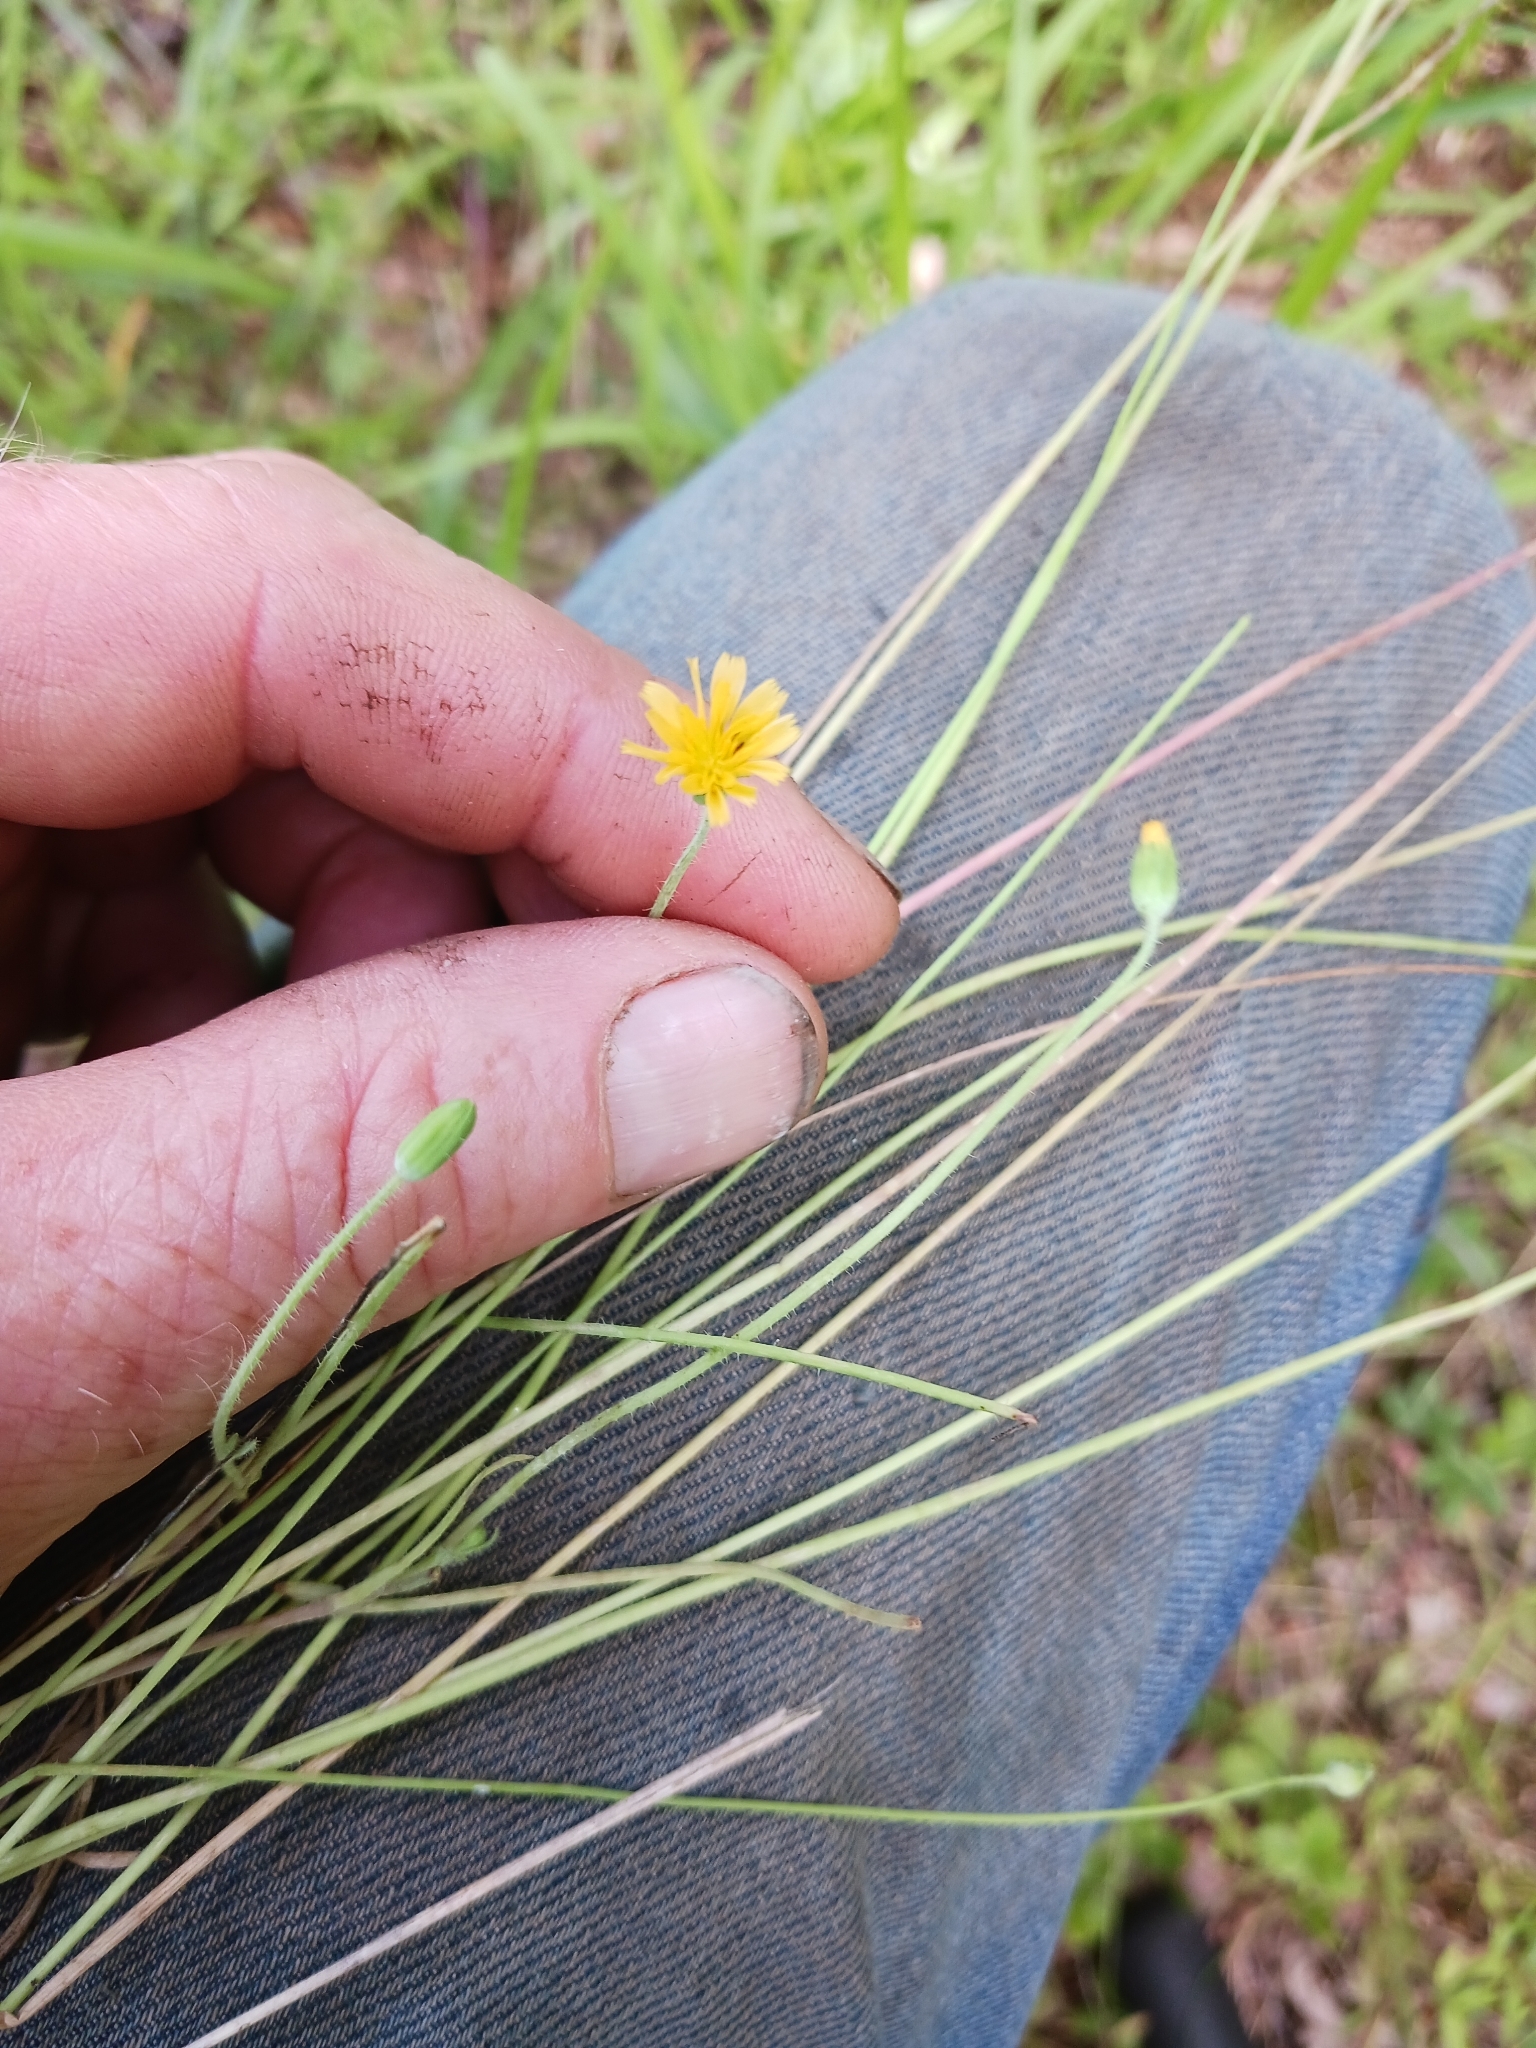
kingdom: Plantae
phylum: Tracheophyta
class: Magnoliopsida
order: Asterales
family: Asteraceae
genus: Krigia
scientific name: Krigia virginica
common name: Virginia dwarf-dandelion
